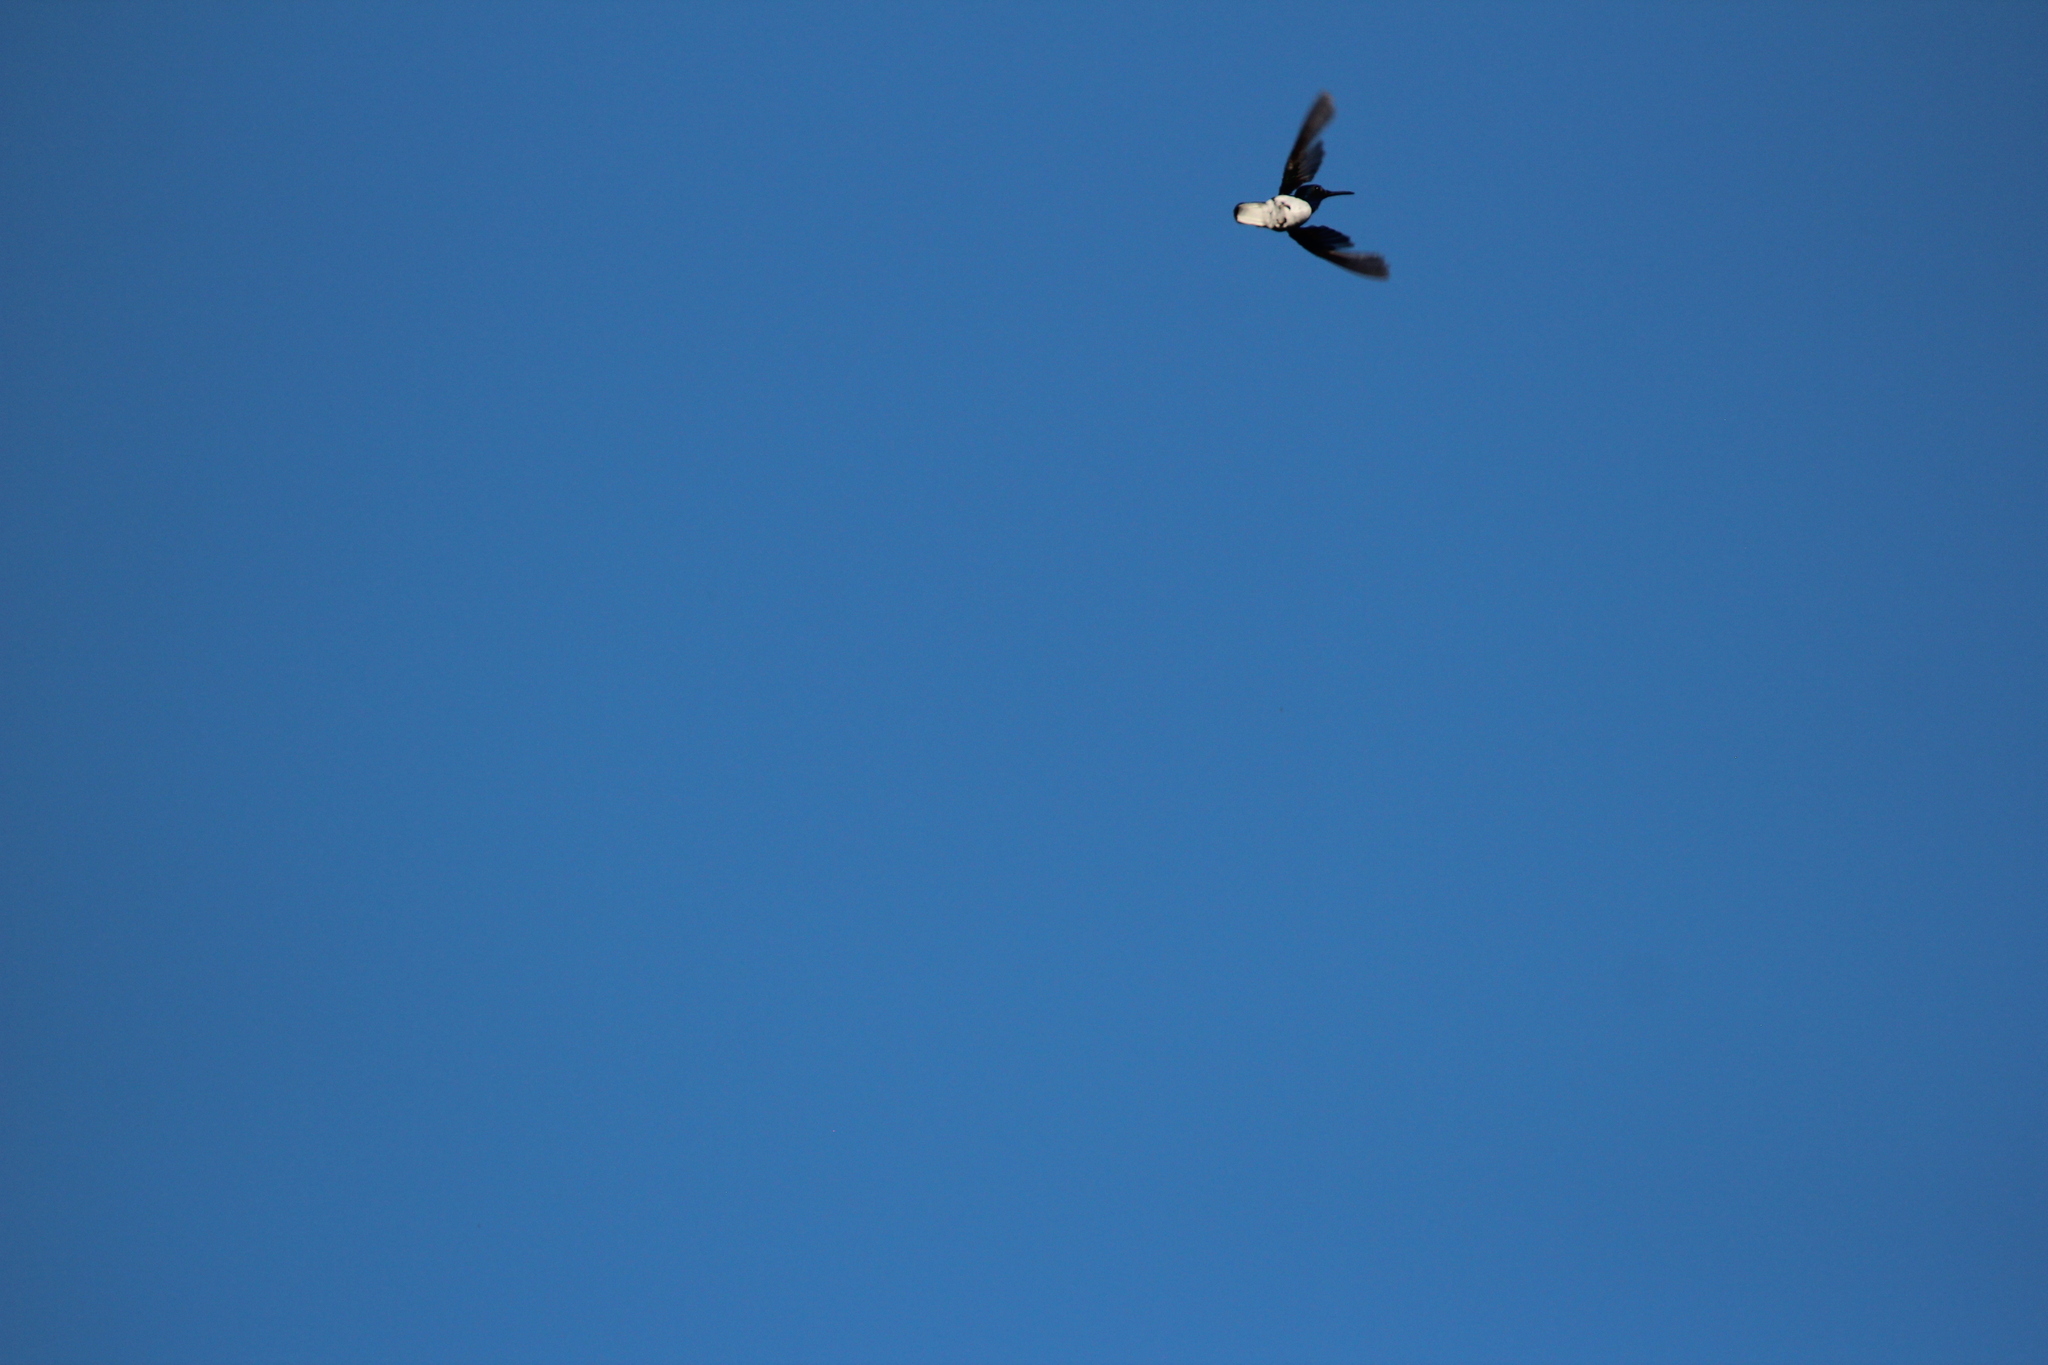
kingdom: Animalia
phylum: Chordata
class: Aves
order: Apodiformes
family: Trochilidae
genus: Florisuga
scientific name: Florisuga mellivora
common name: White-necked jacobin
